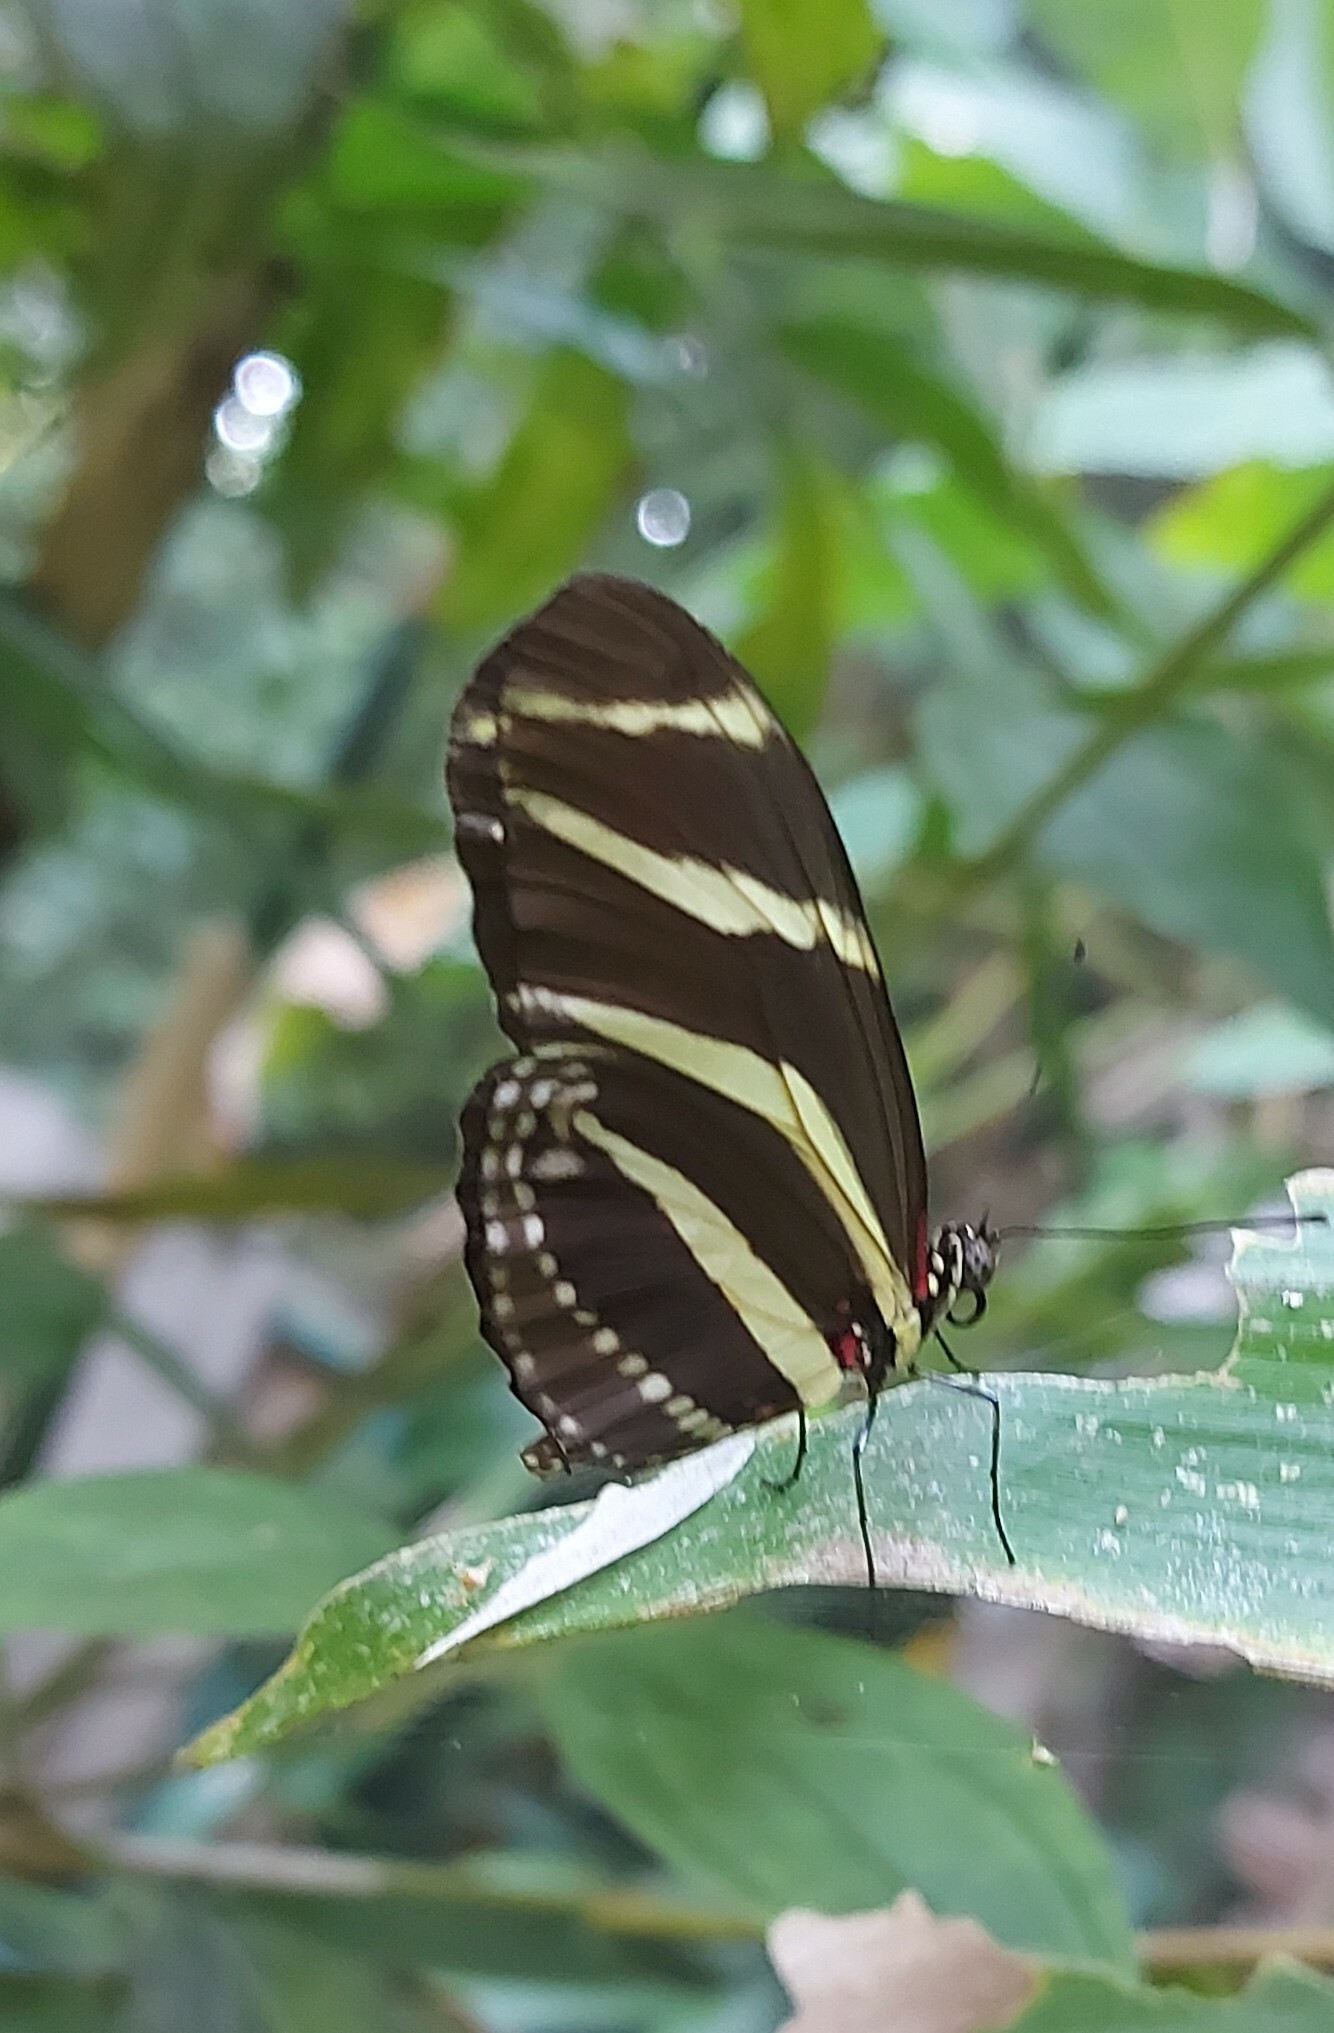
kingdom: Animalia
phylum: Arthropoda
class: Insecta
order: Lepidoptera
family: Nymphalidae
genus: Heliconius
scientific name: Heliconius charithonia
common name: Zebra long wing
